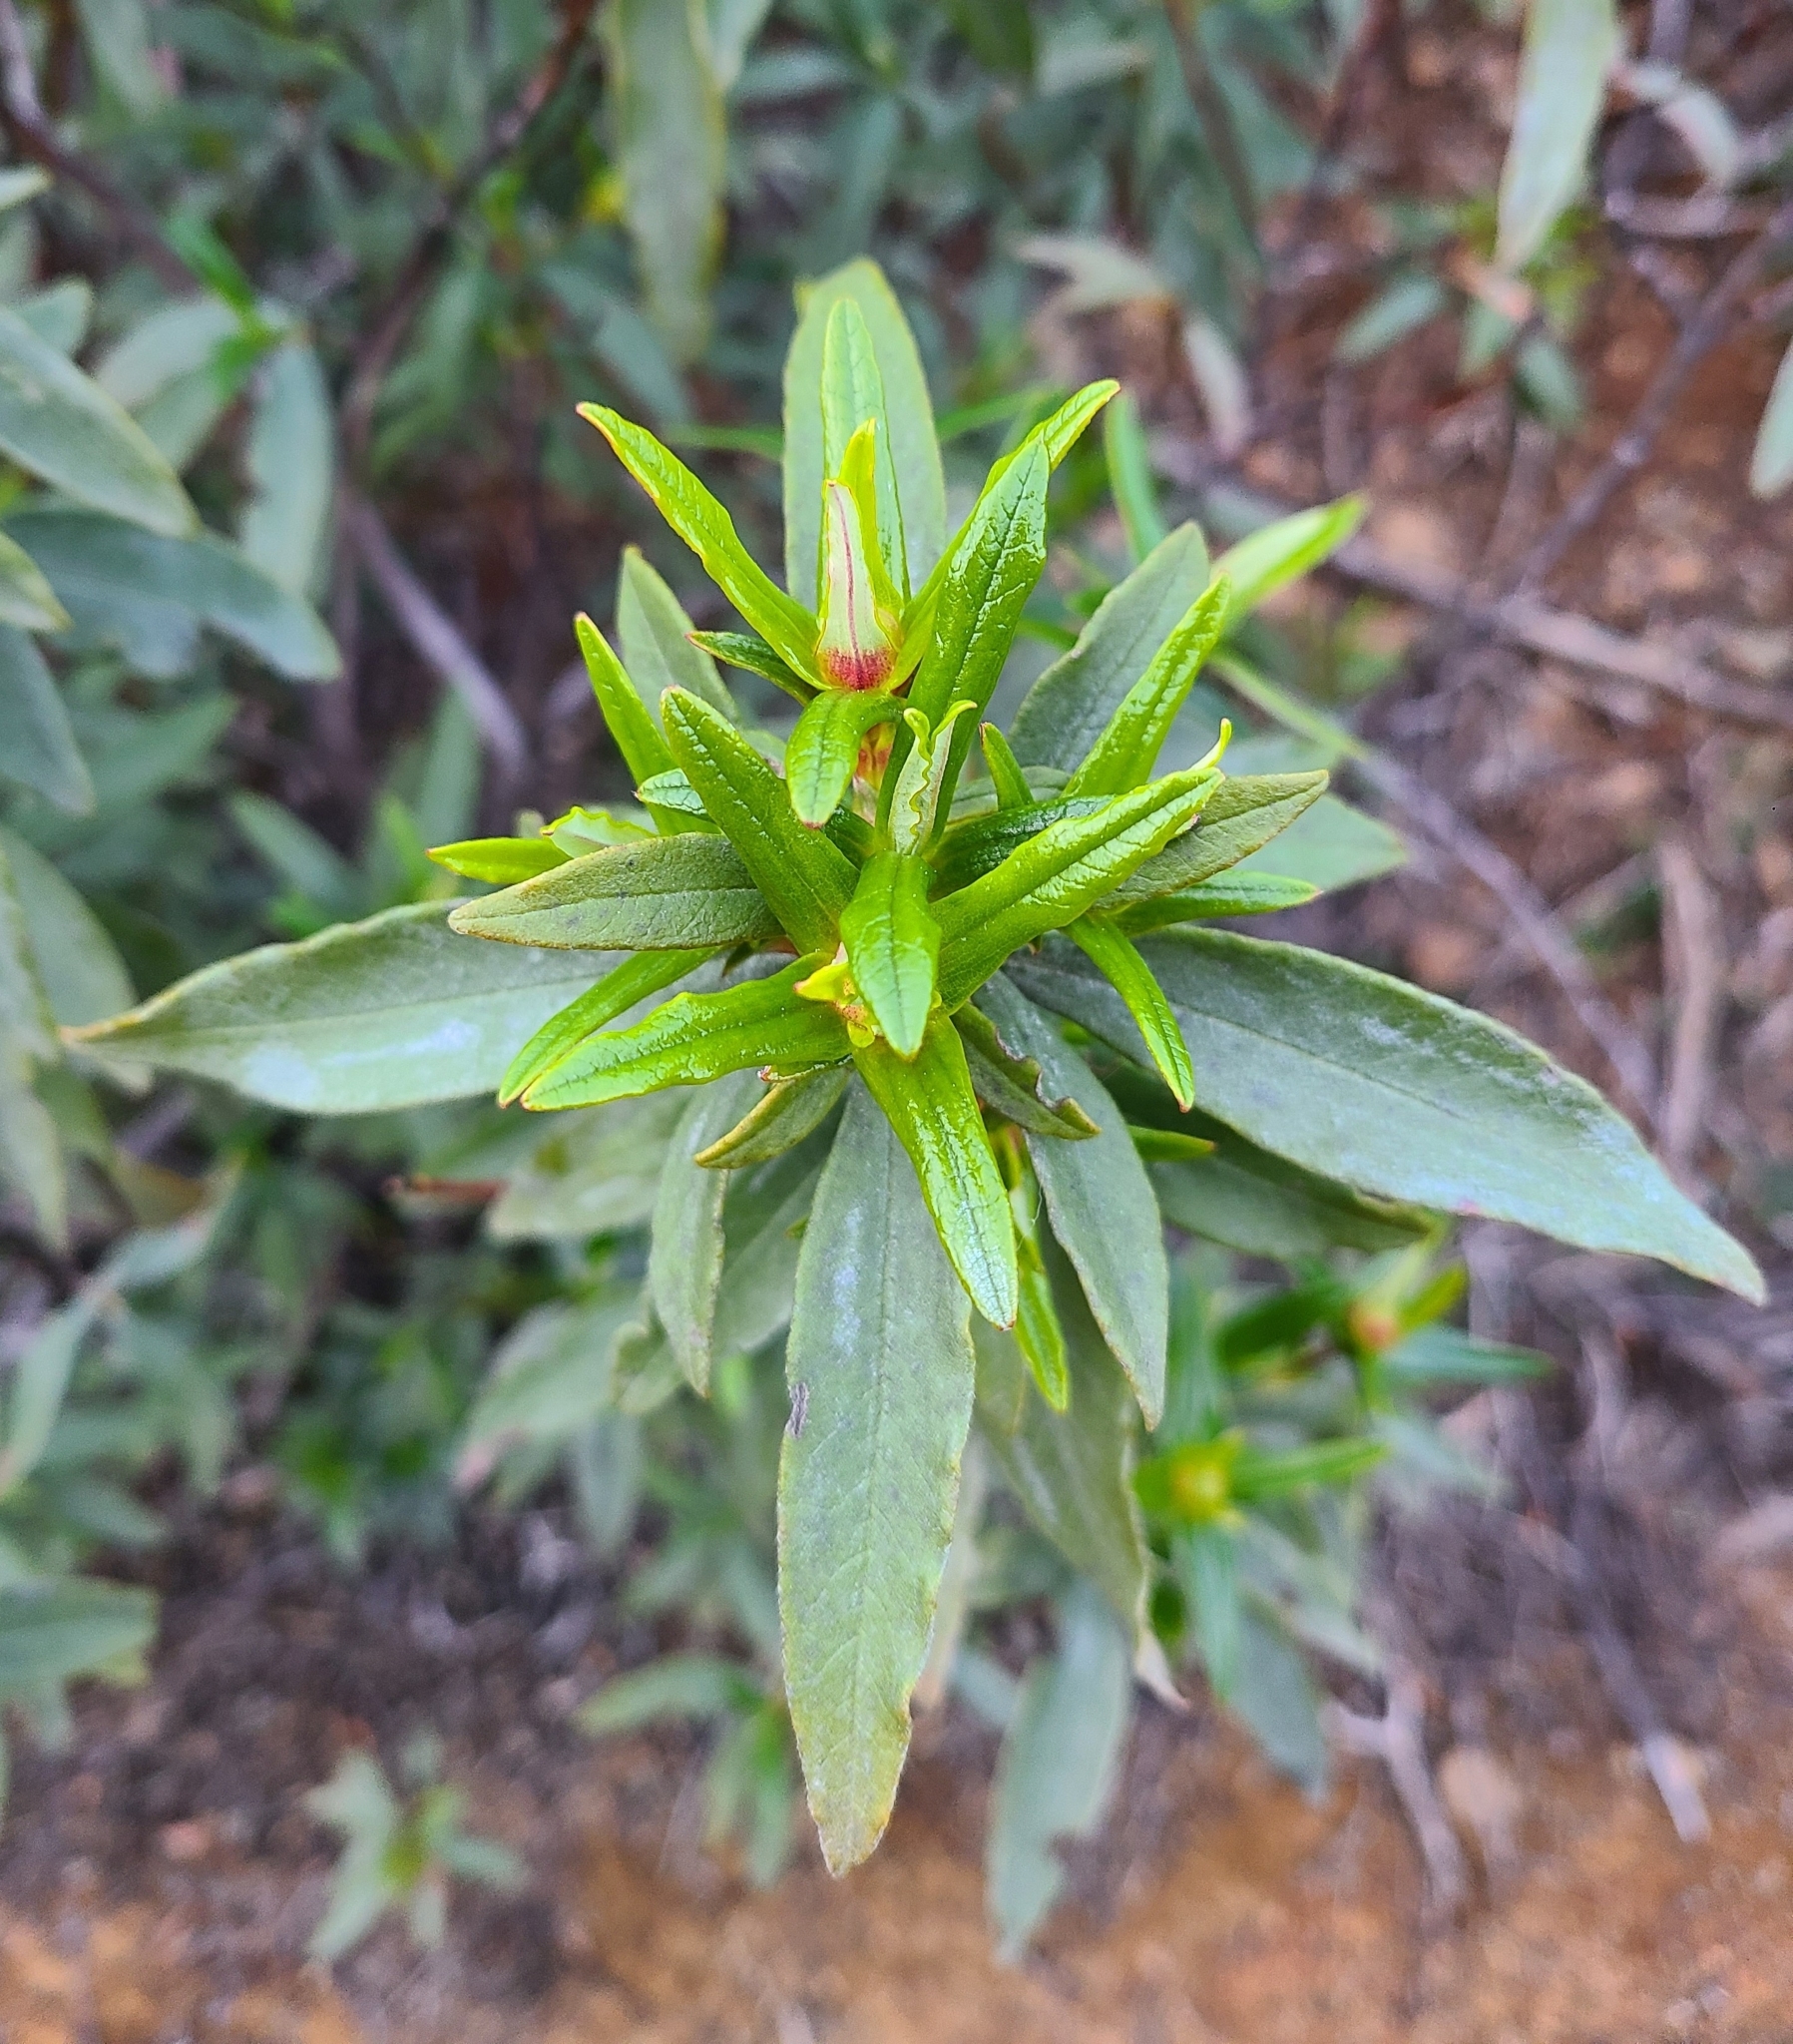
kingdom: Plantae
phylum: Tracheophyta
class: Magnoliopsida
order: Malvales
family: Cistaceae
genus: Cistus
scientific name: Cistus ladanifer
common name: Common gum cistus
